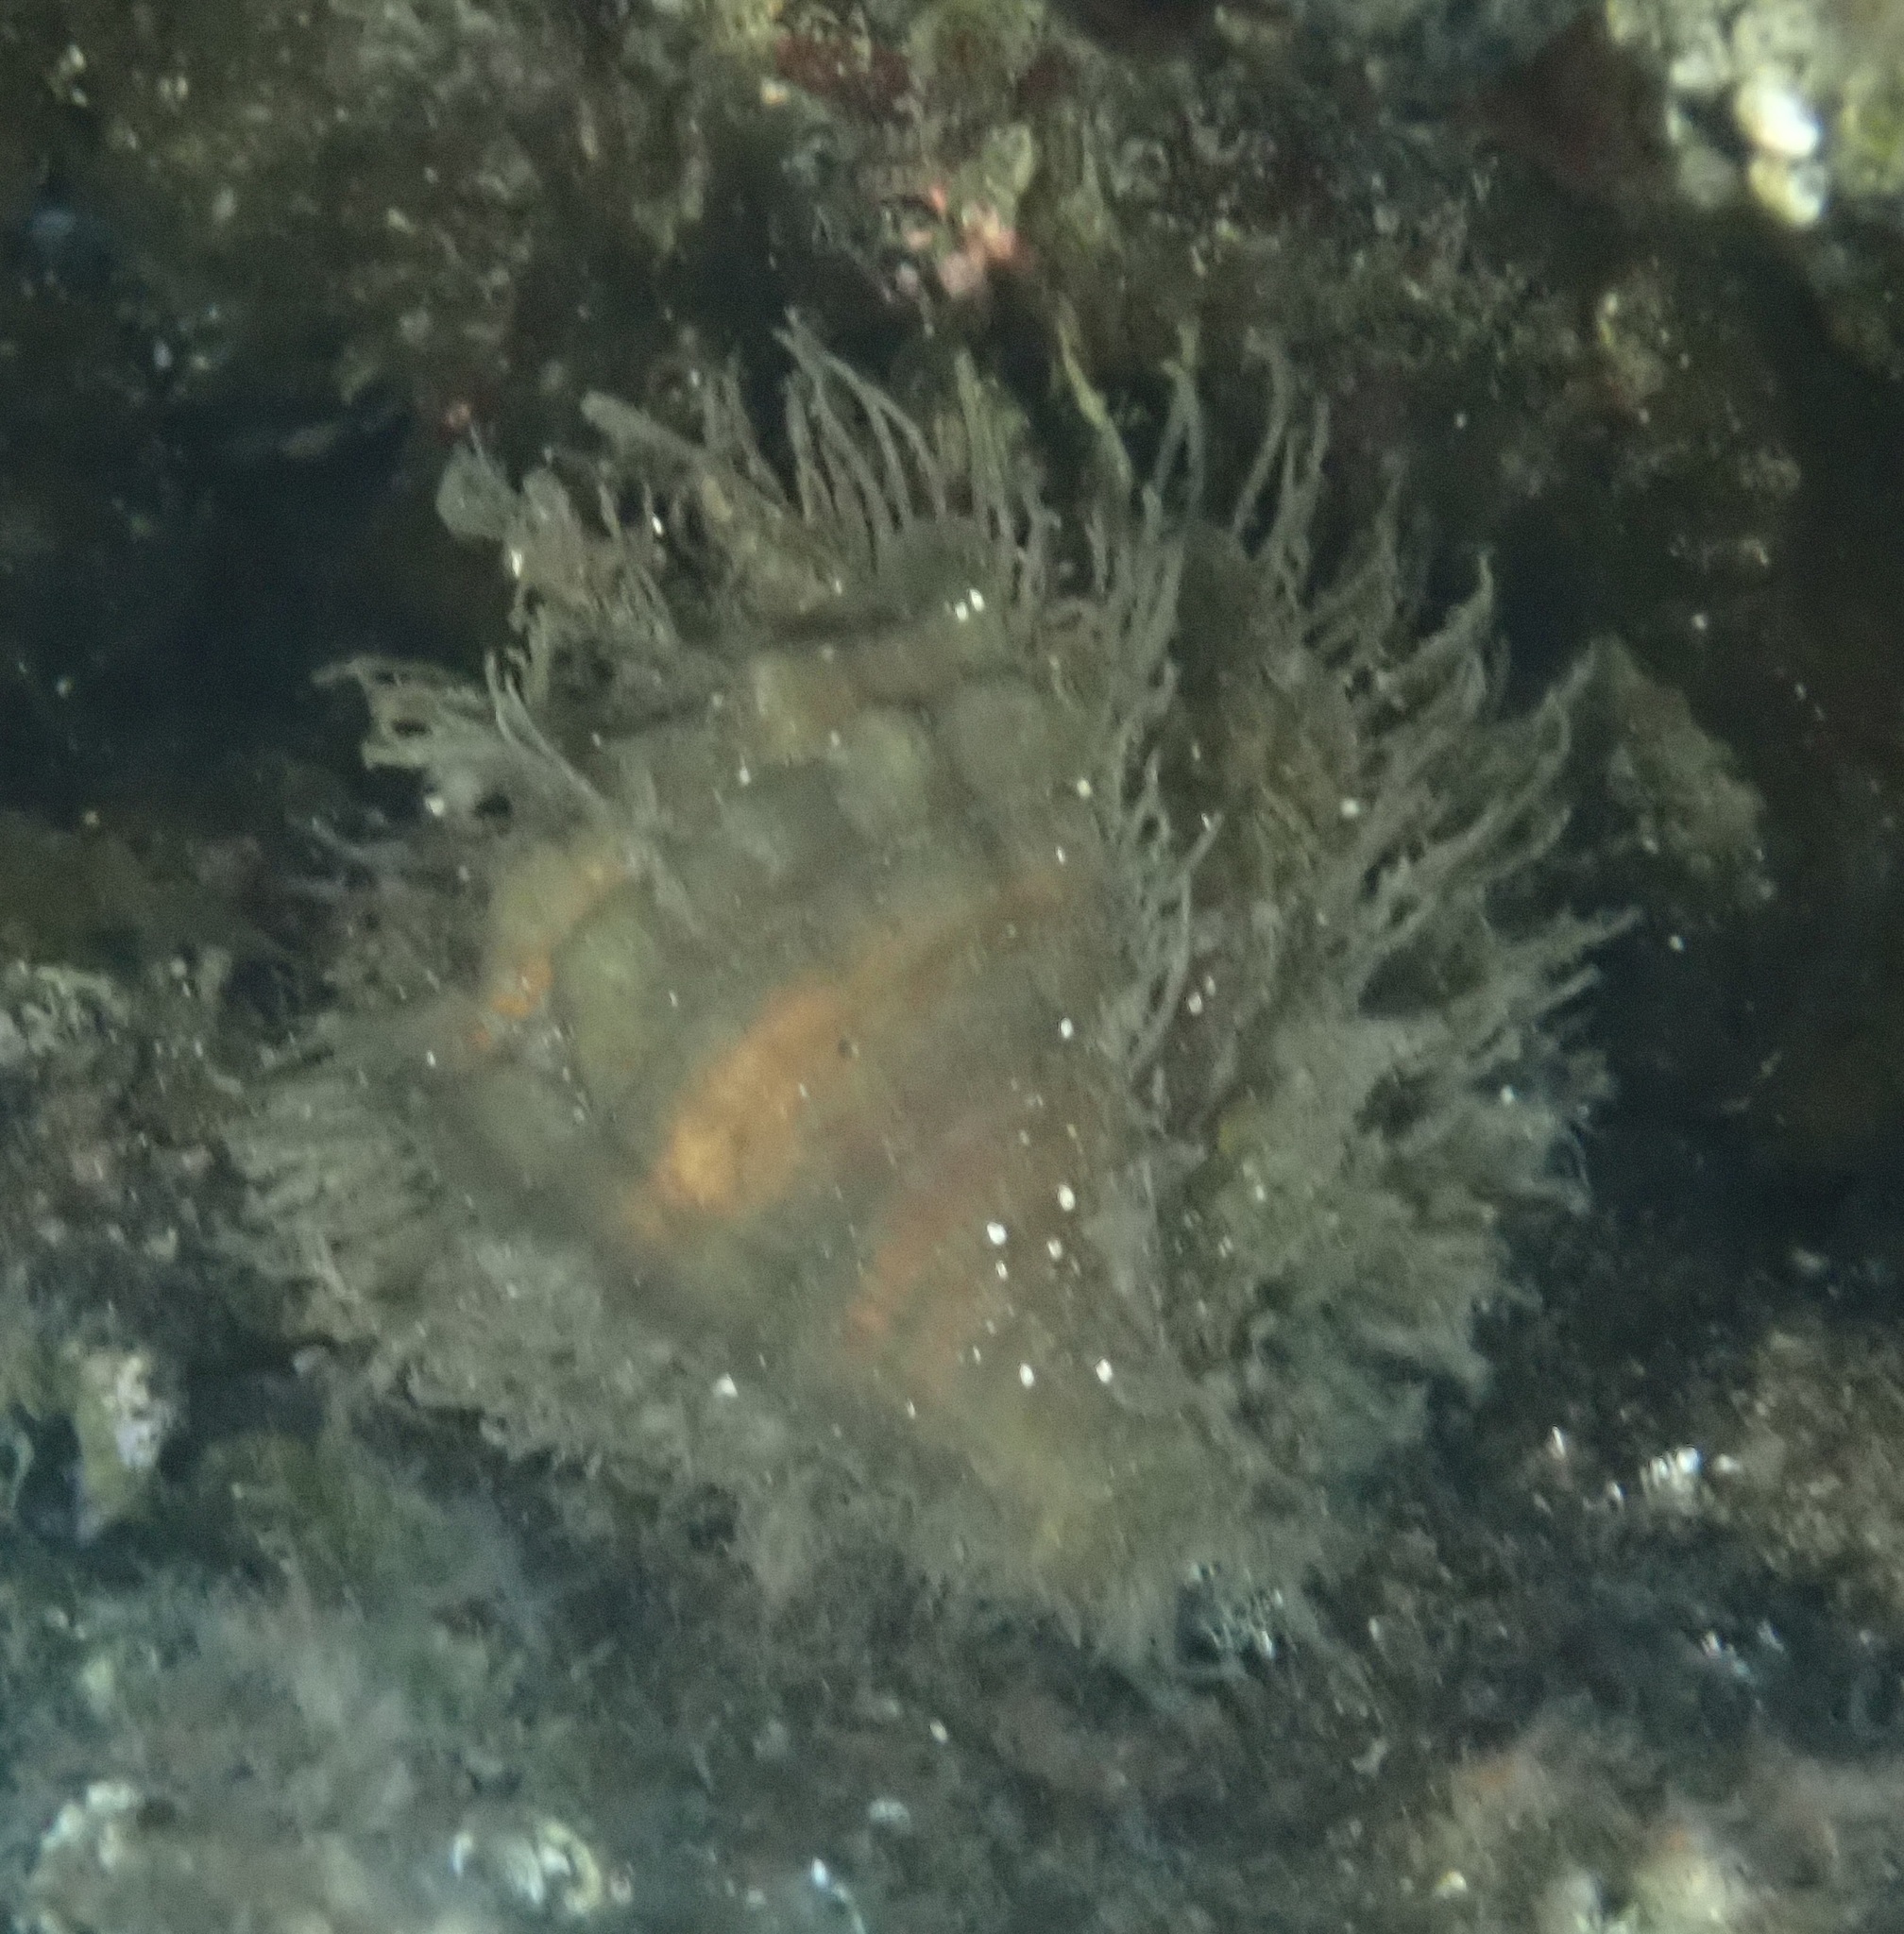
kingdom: Animalia
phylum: Mollusca
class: Gastropoda
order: Littorinimorpha
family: Cymatiidae
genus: Monoplex
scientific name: Monoplex parthenopeus
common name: Giant triton
